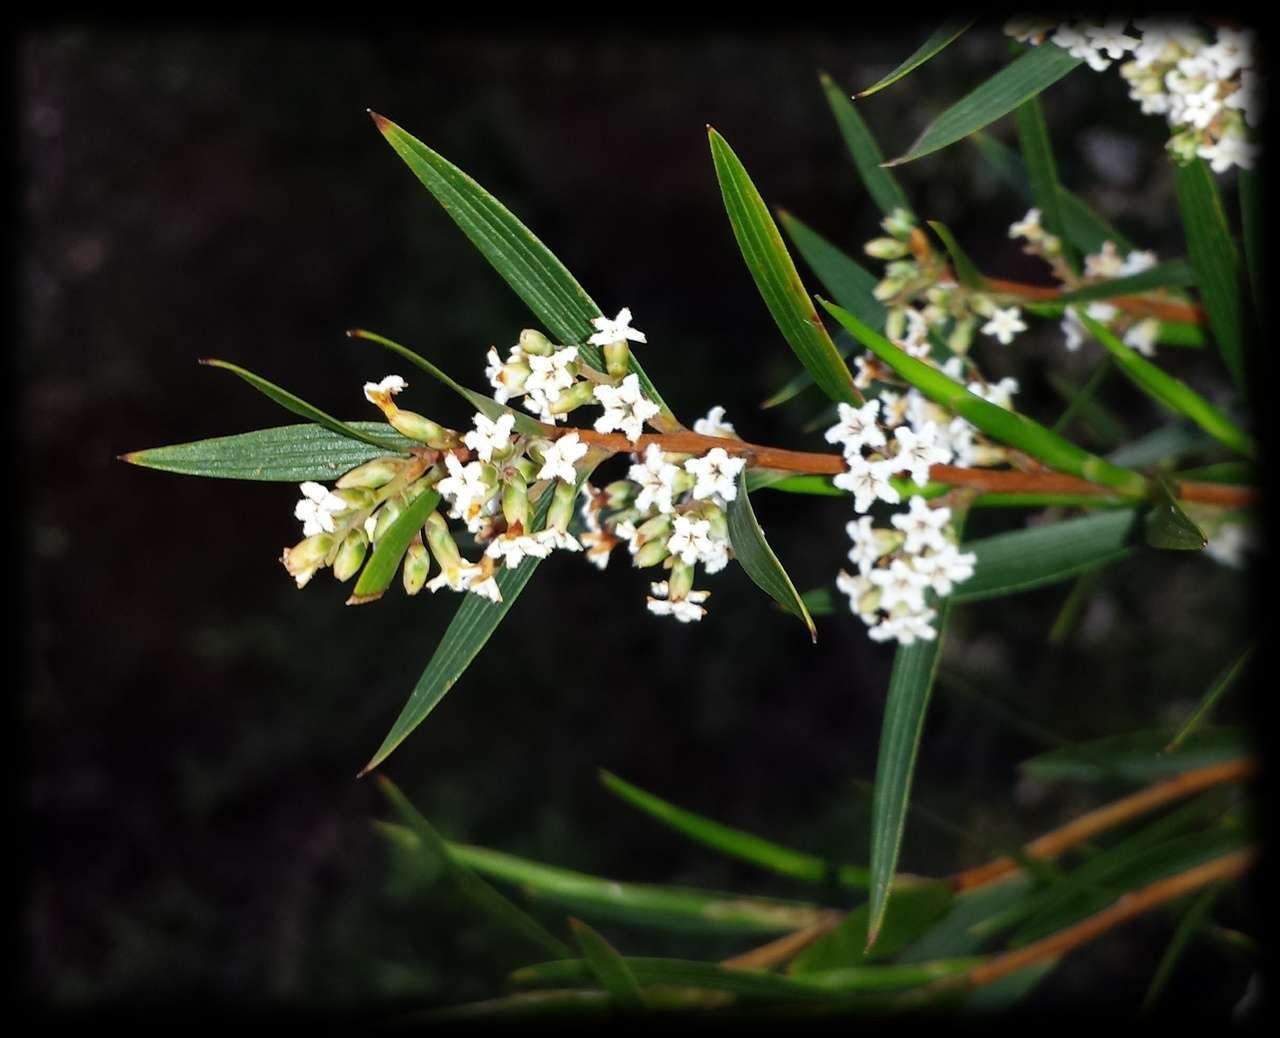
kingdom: Plantae
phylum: Tracheophyta
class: Magnoliopsida
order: Ericales
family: Ericaceae
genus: Leucopogon
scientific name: Leucopogon neurophyllus
